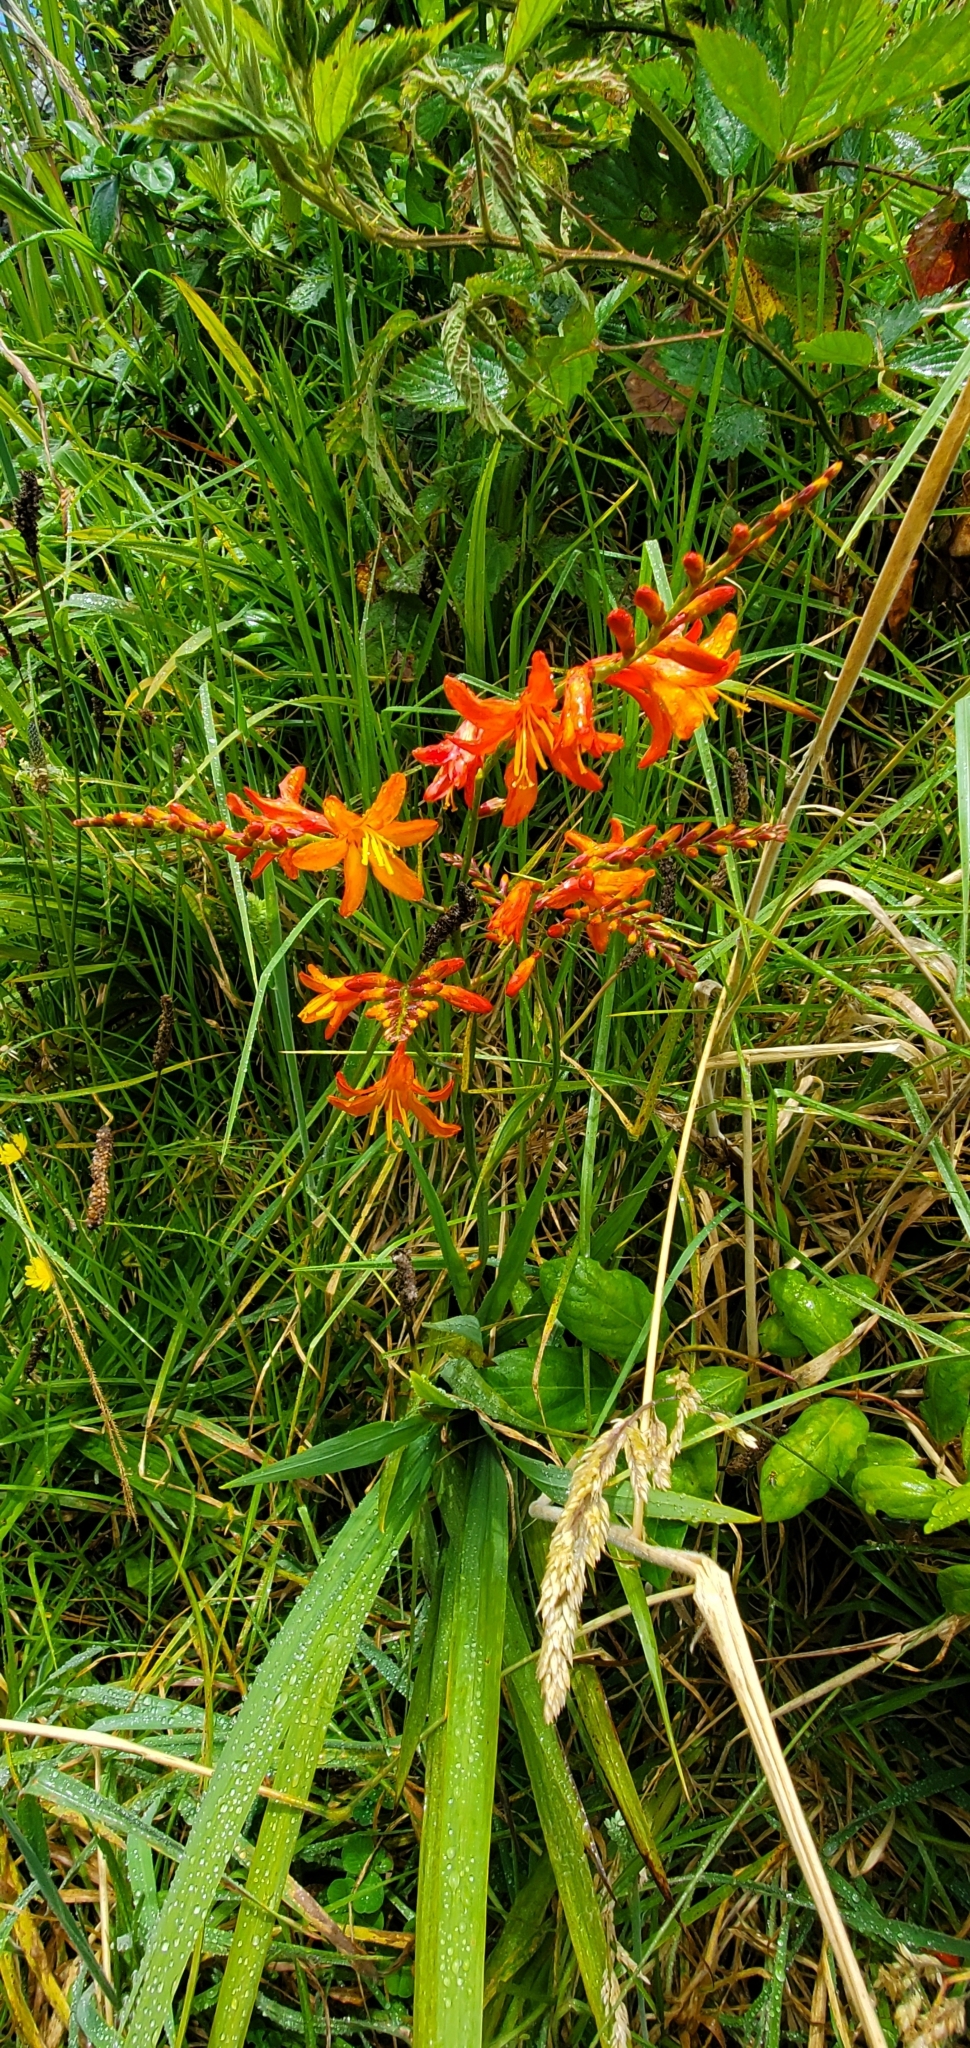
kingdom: Plantae
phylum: Tracheophyta
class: Liliopsida
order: Asparagales
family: Iridaceae
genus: Crocosmia
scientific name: Crocosmia crocosmiiflora
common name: Montbretia
